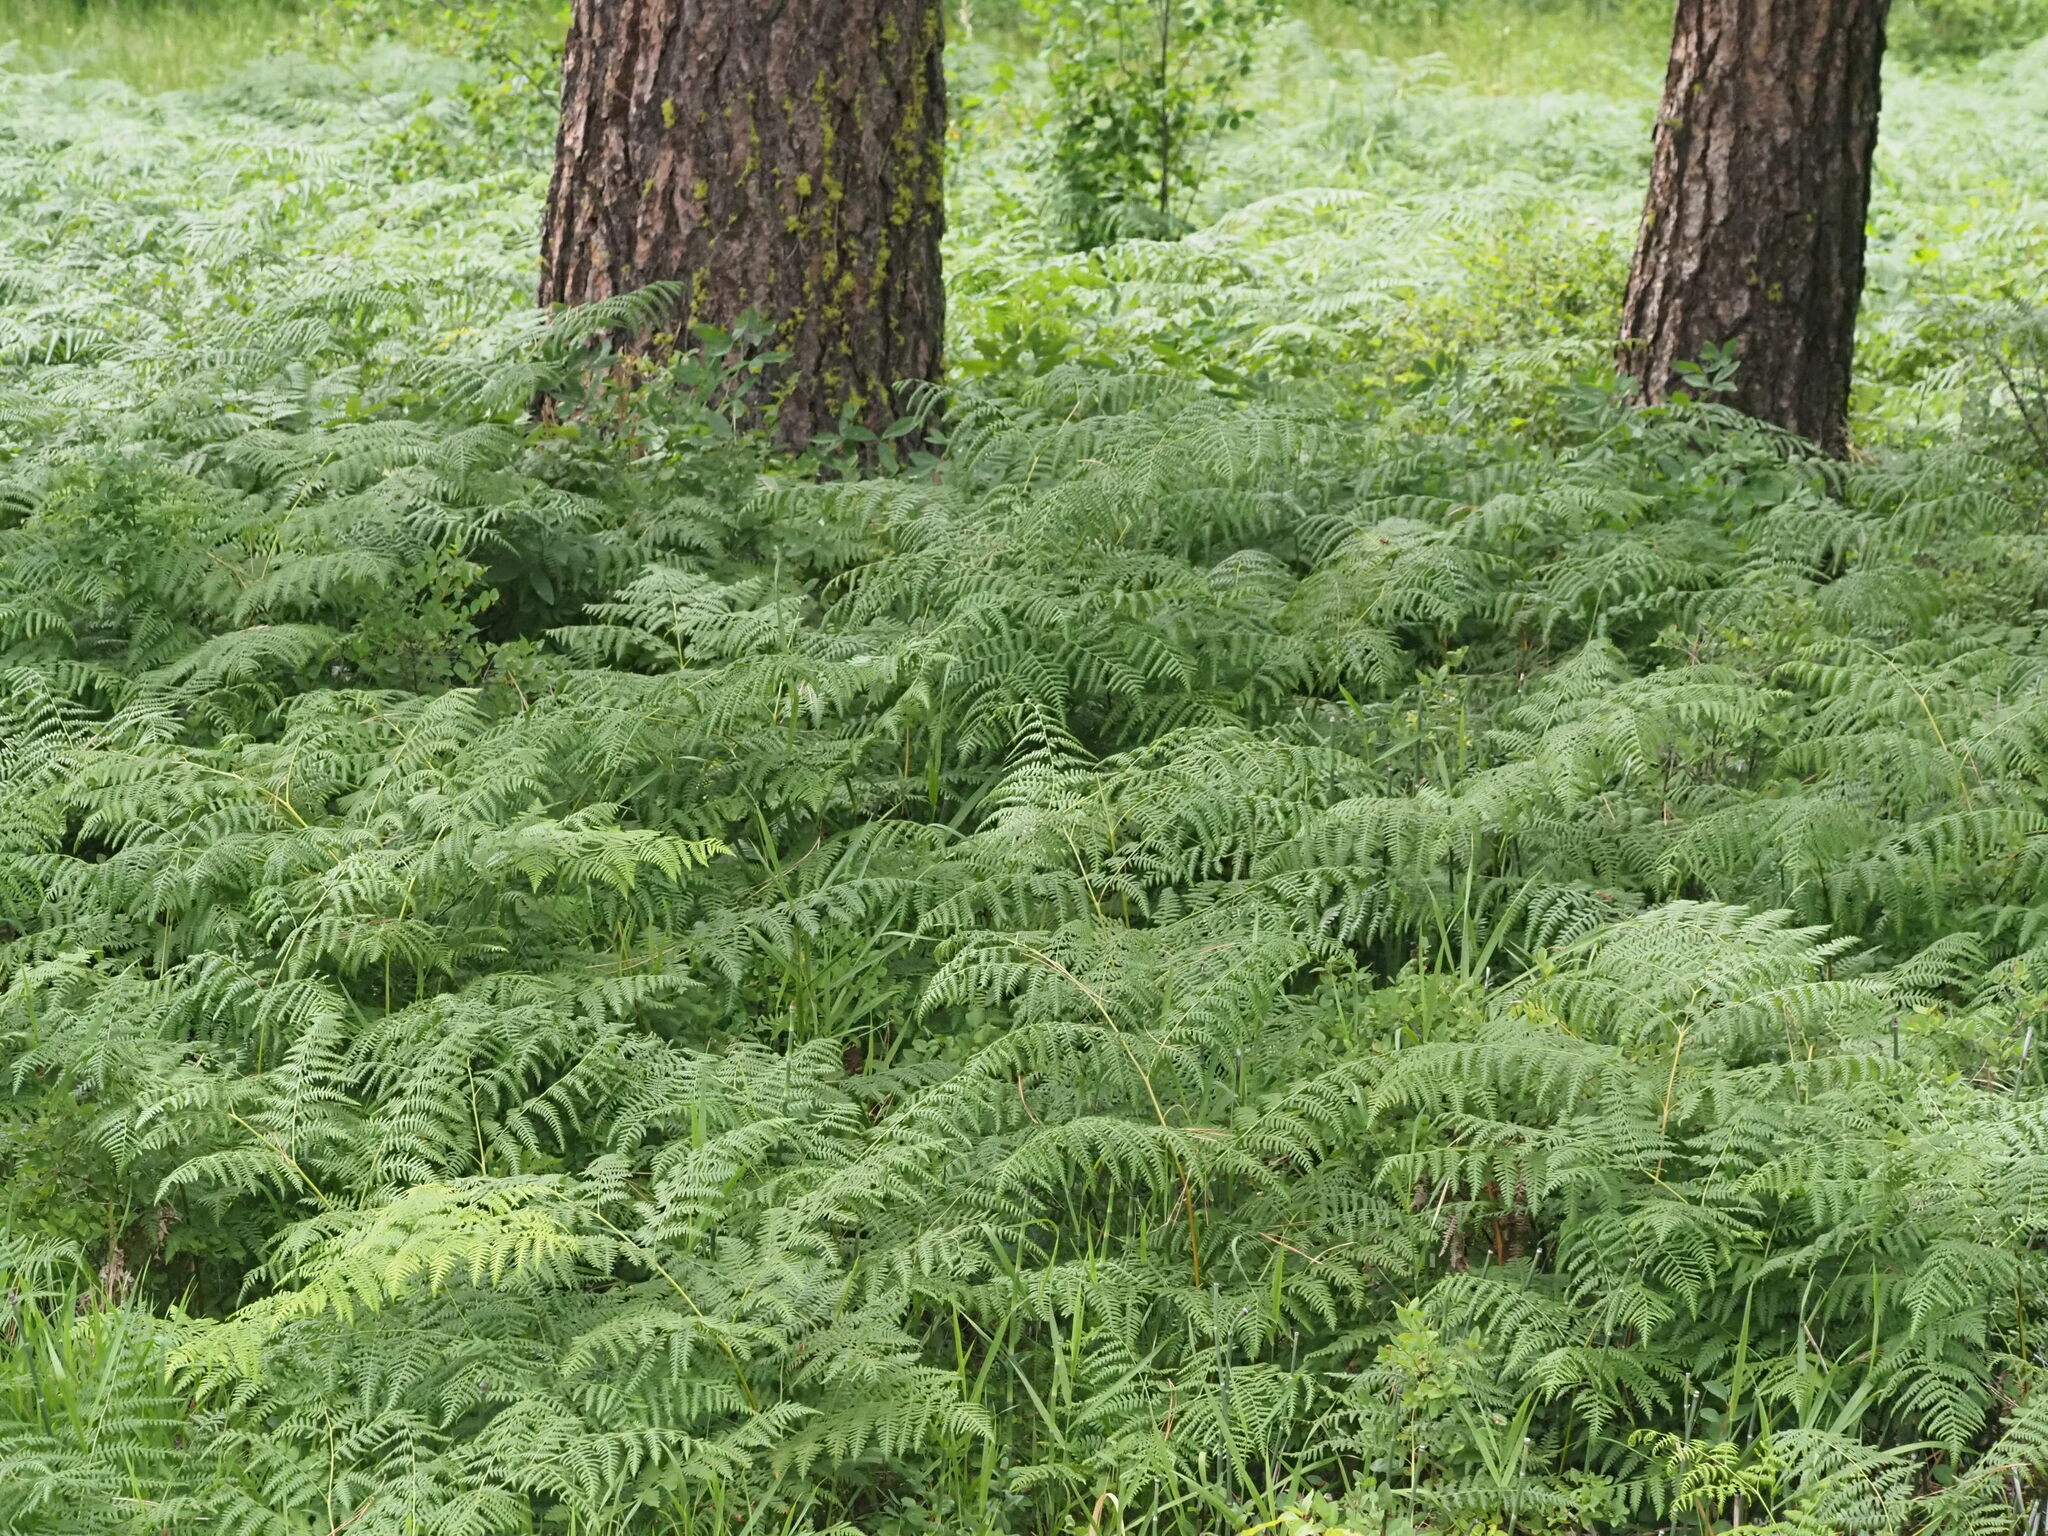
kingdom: Plantae
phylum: Tracheophyta
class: Polypodiopsida
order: Polypodiales
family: Dennstaedtiaceae
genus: Pteridium
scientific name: Pteridium aquilinum
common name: Bracken
